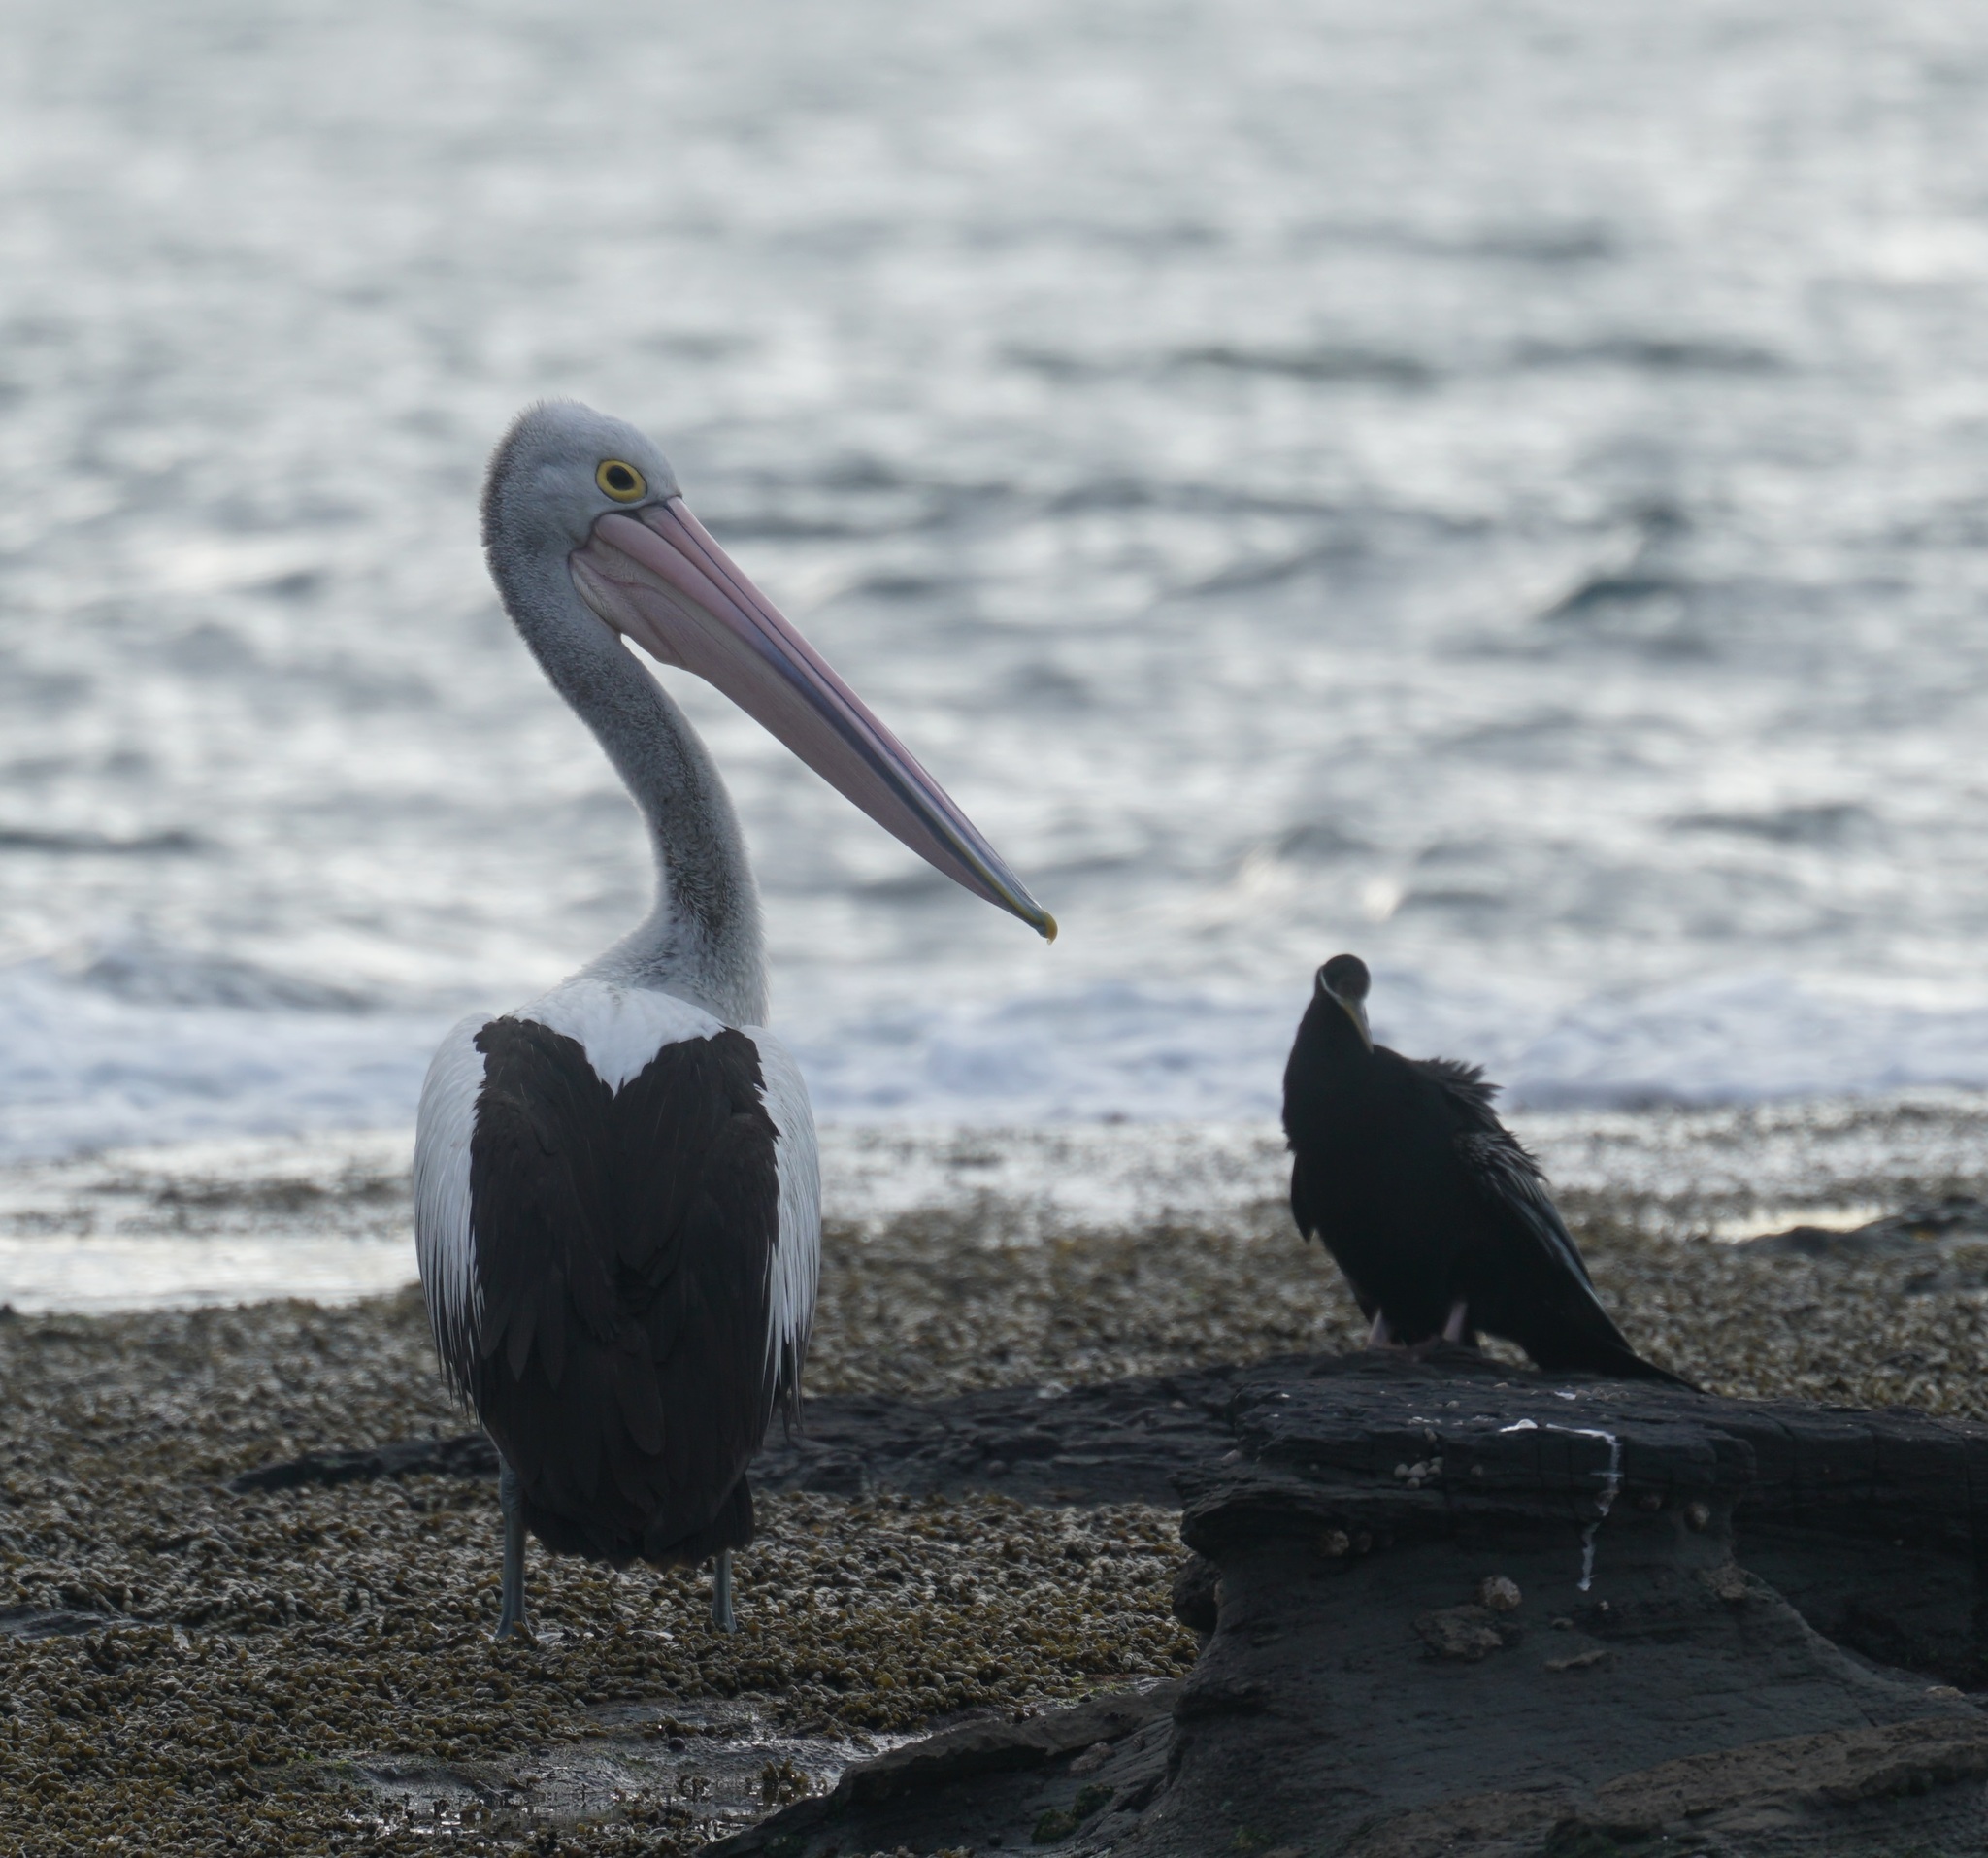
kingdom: Animalia
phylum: Chordata
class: Aves
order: Pelecaniformes
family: Pelecanidae
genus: Pelecanus
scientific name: Pelecanus conspicillatus
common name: Australian pelican
